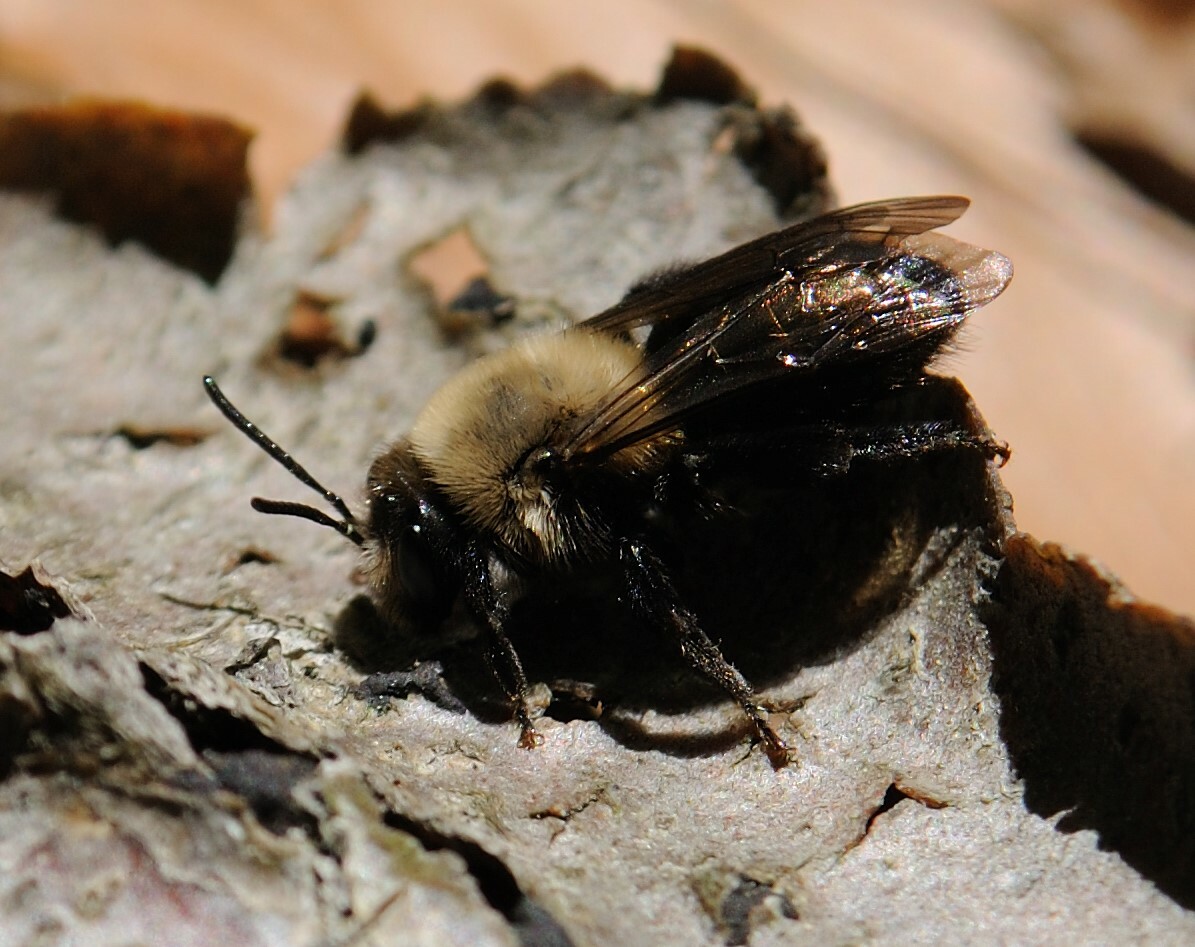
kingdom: Animalia
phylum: Arthropoda
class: Insecta
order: Hymenoptera
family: Andrenidae
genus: Andrena
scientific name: Andrena carlini
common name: Carlin's mining bee
